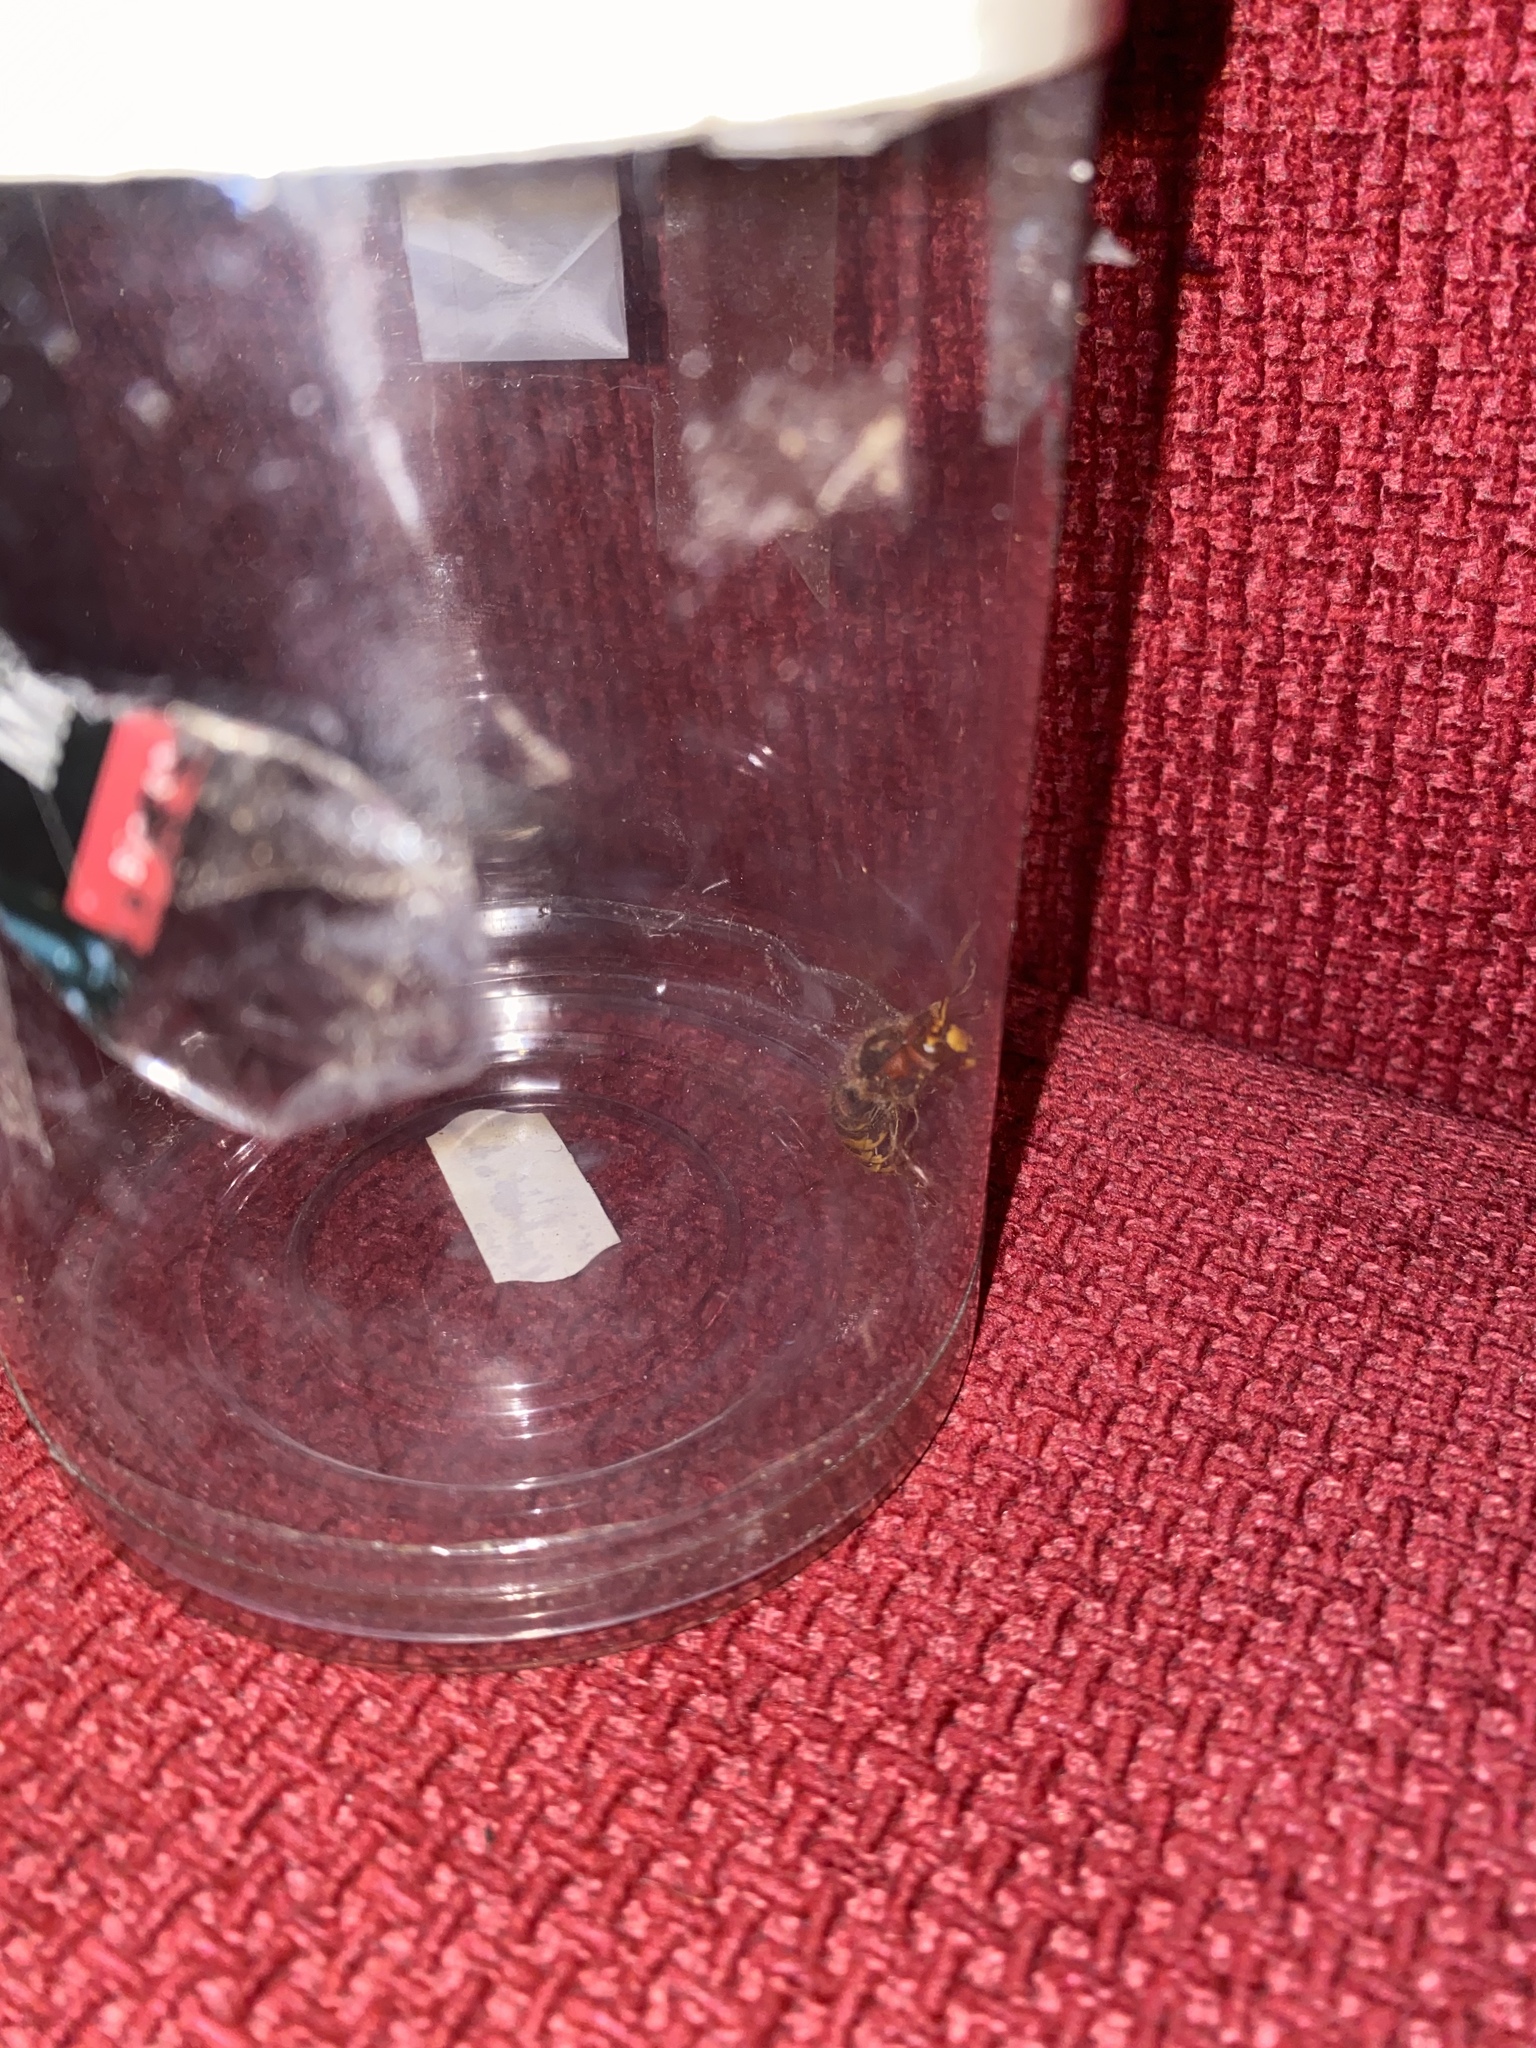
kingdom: Animalia
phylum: Arthropoda
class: Insecta
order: Hymenoptera
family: Vespidae
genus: Vespa
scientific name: Vespa crabro
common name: Hornet
